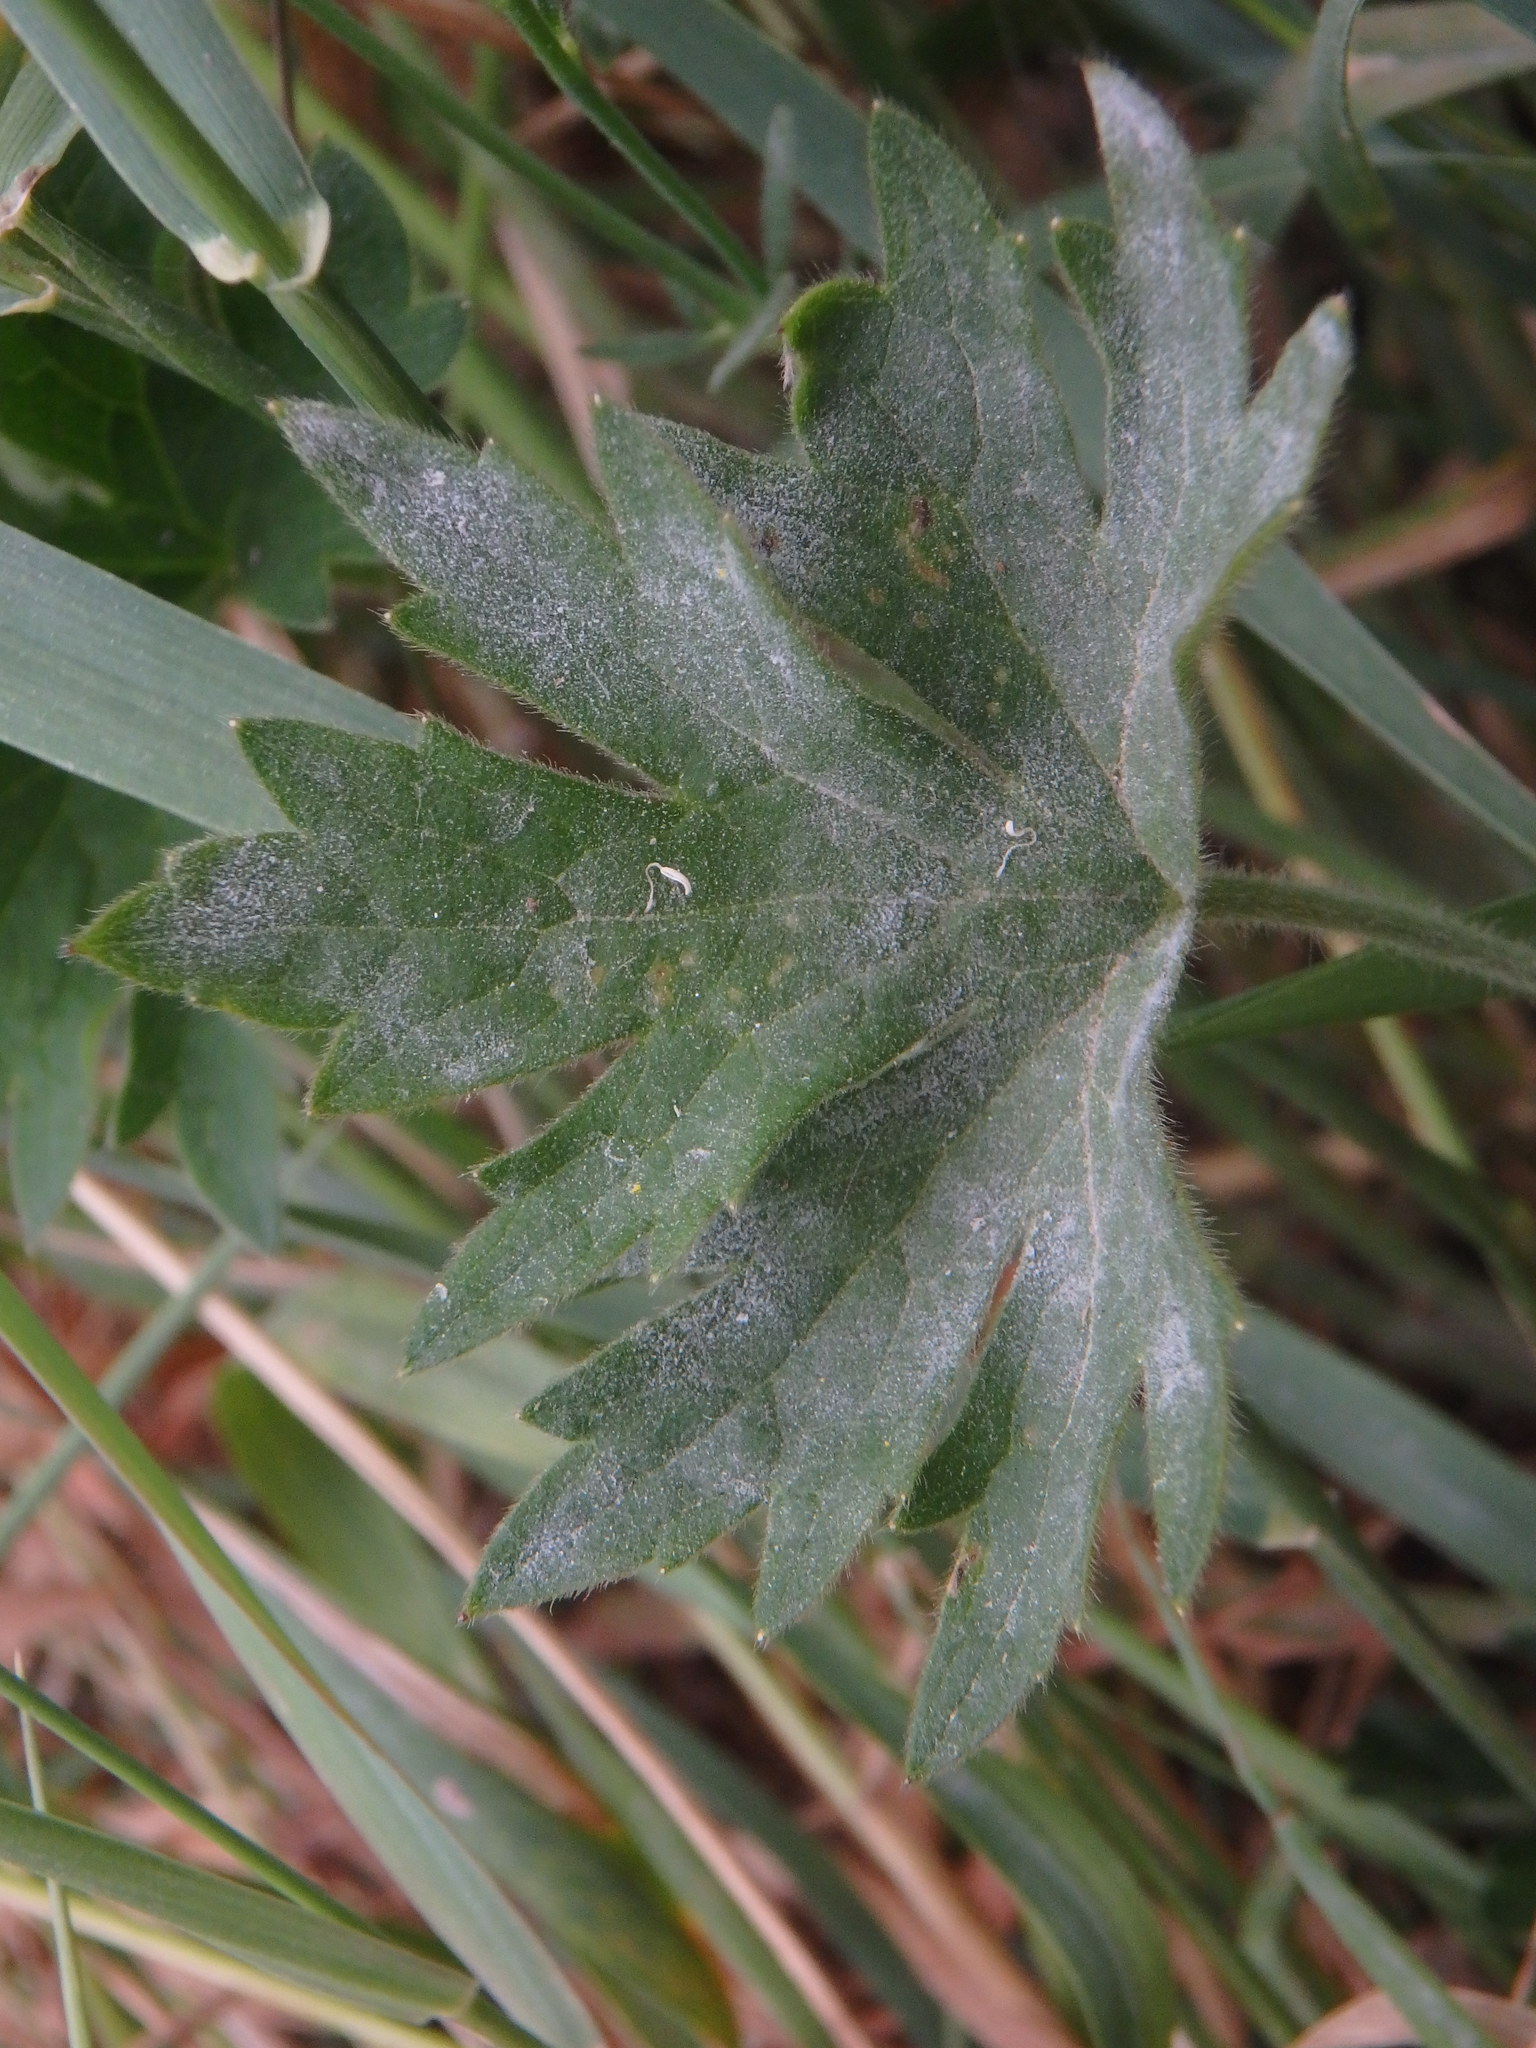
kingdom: Plantae
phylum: Tracheophyta
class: Magnoliopsida
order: Ranunculales
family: Ranunculaceae
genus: Ranunculus
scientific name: Ranunculus acris
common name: Meadow buttercup
